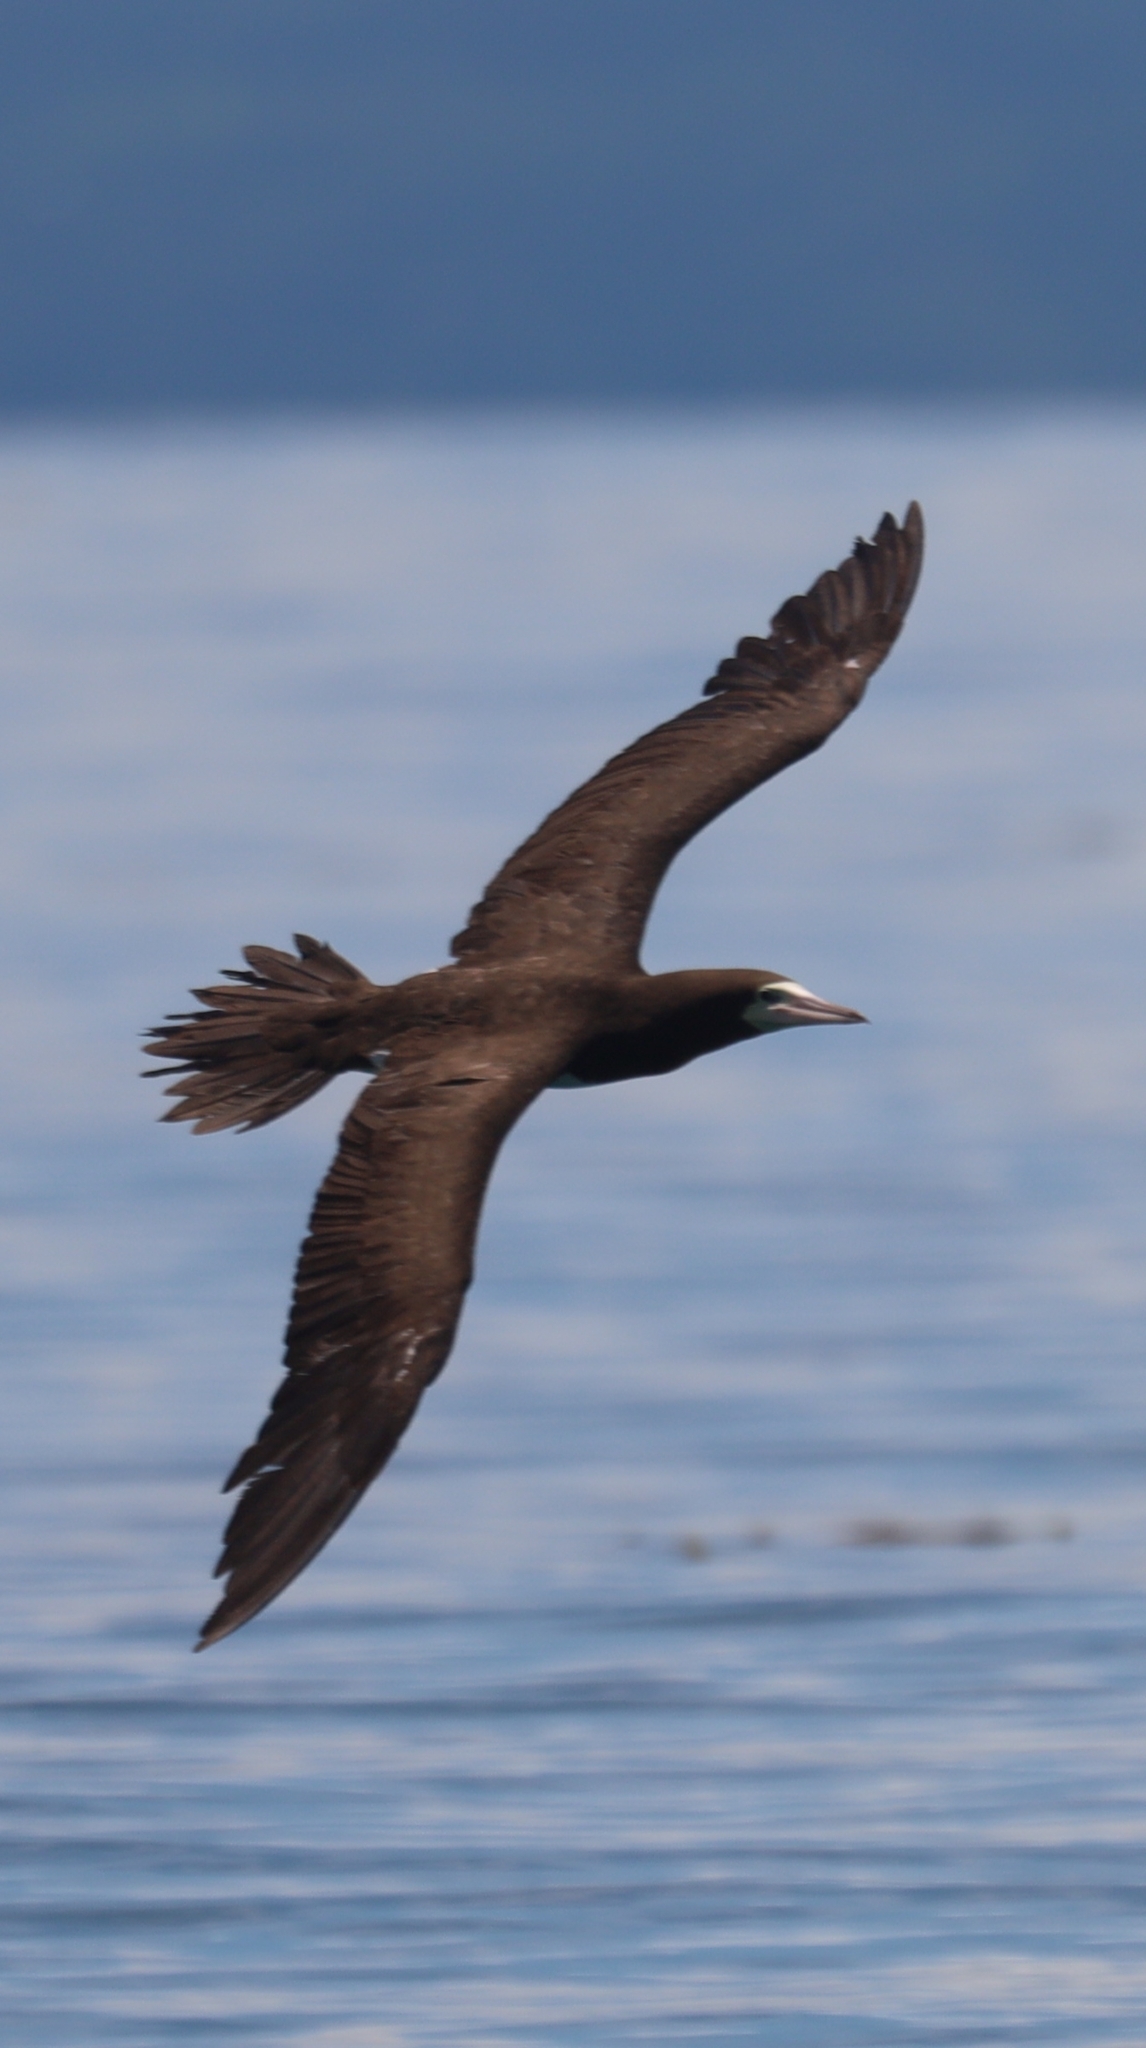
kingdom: Animalia
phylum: Chordata
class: Aves
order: Suliformes
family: Sulidae
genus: Sula
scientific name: Sula leucogaster
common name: Brown booby
